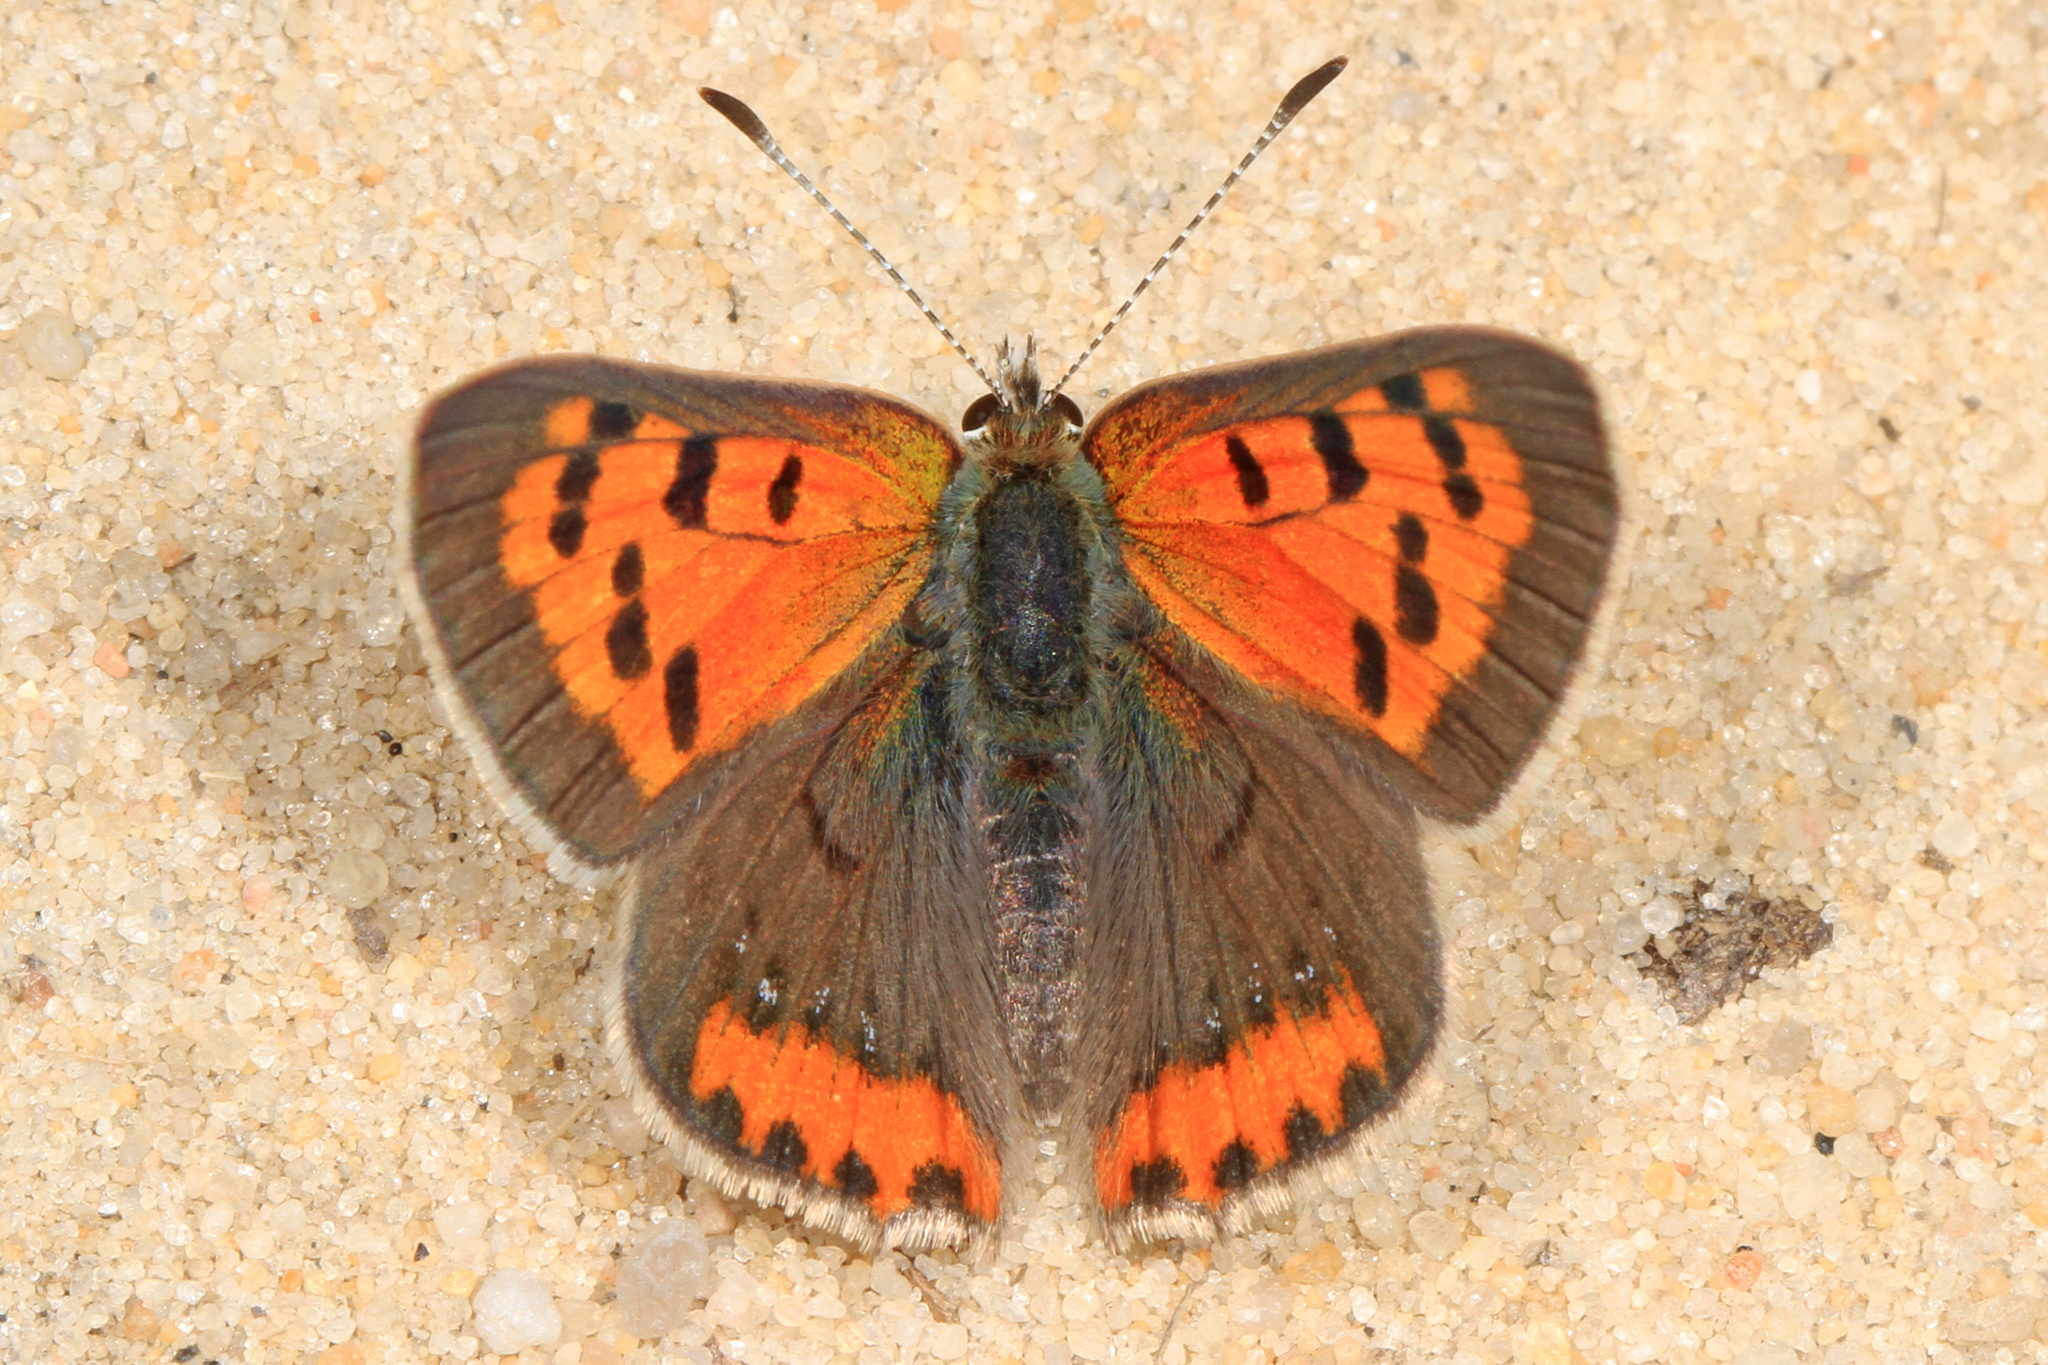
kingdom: Animalia
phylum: Arthropoda
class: Insecta
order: Lepidoptera
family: Lycaenidae
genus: Lycaena
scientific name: Lycaena hypophlaeas
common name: American copper
